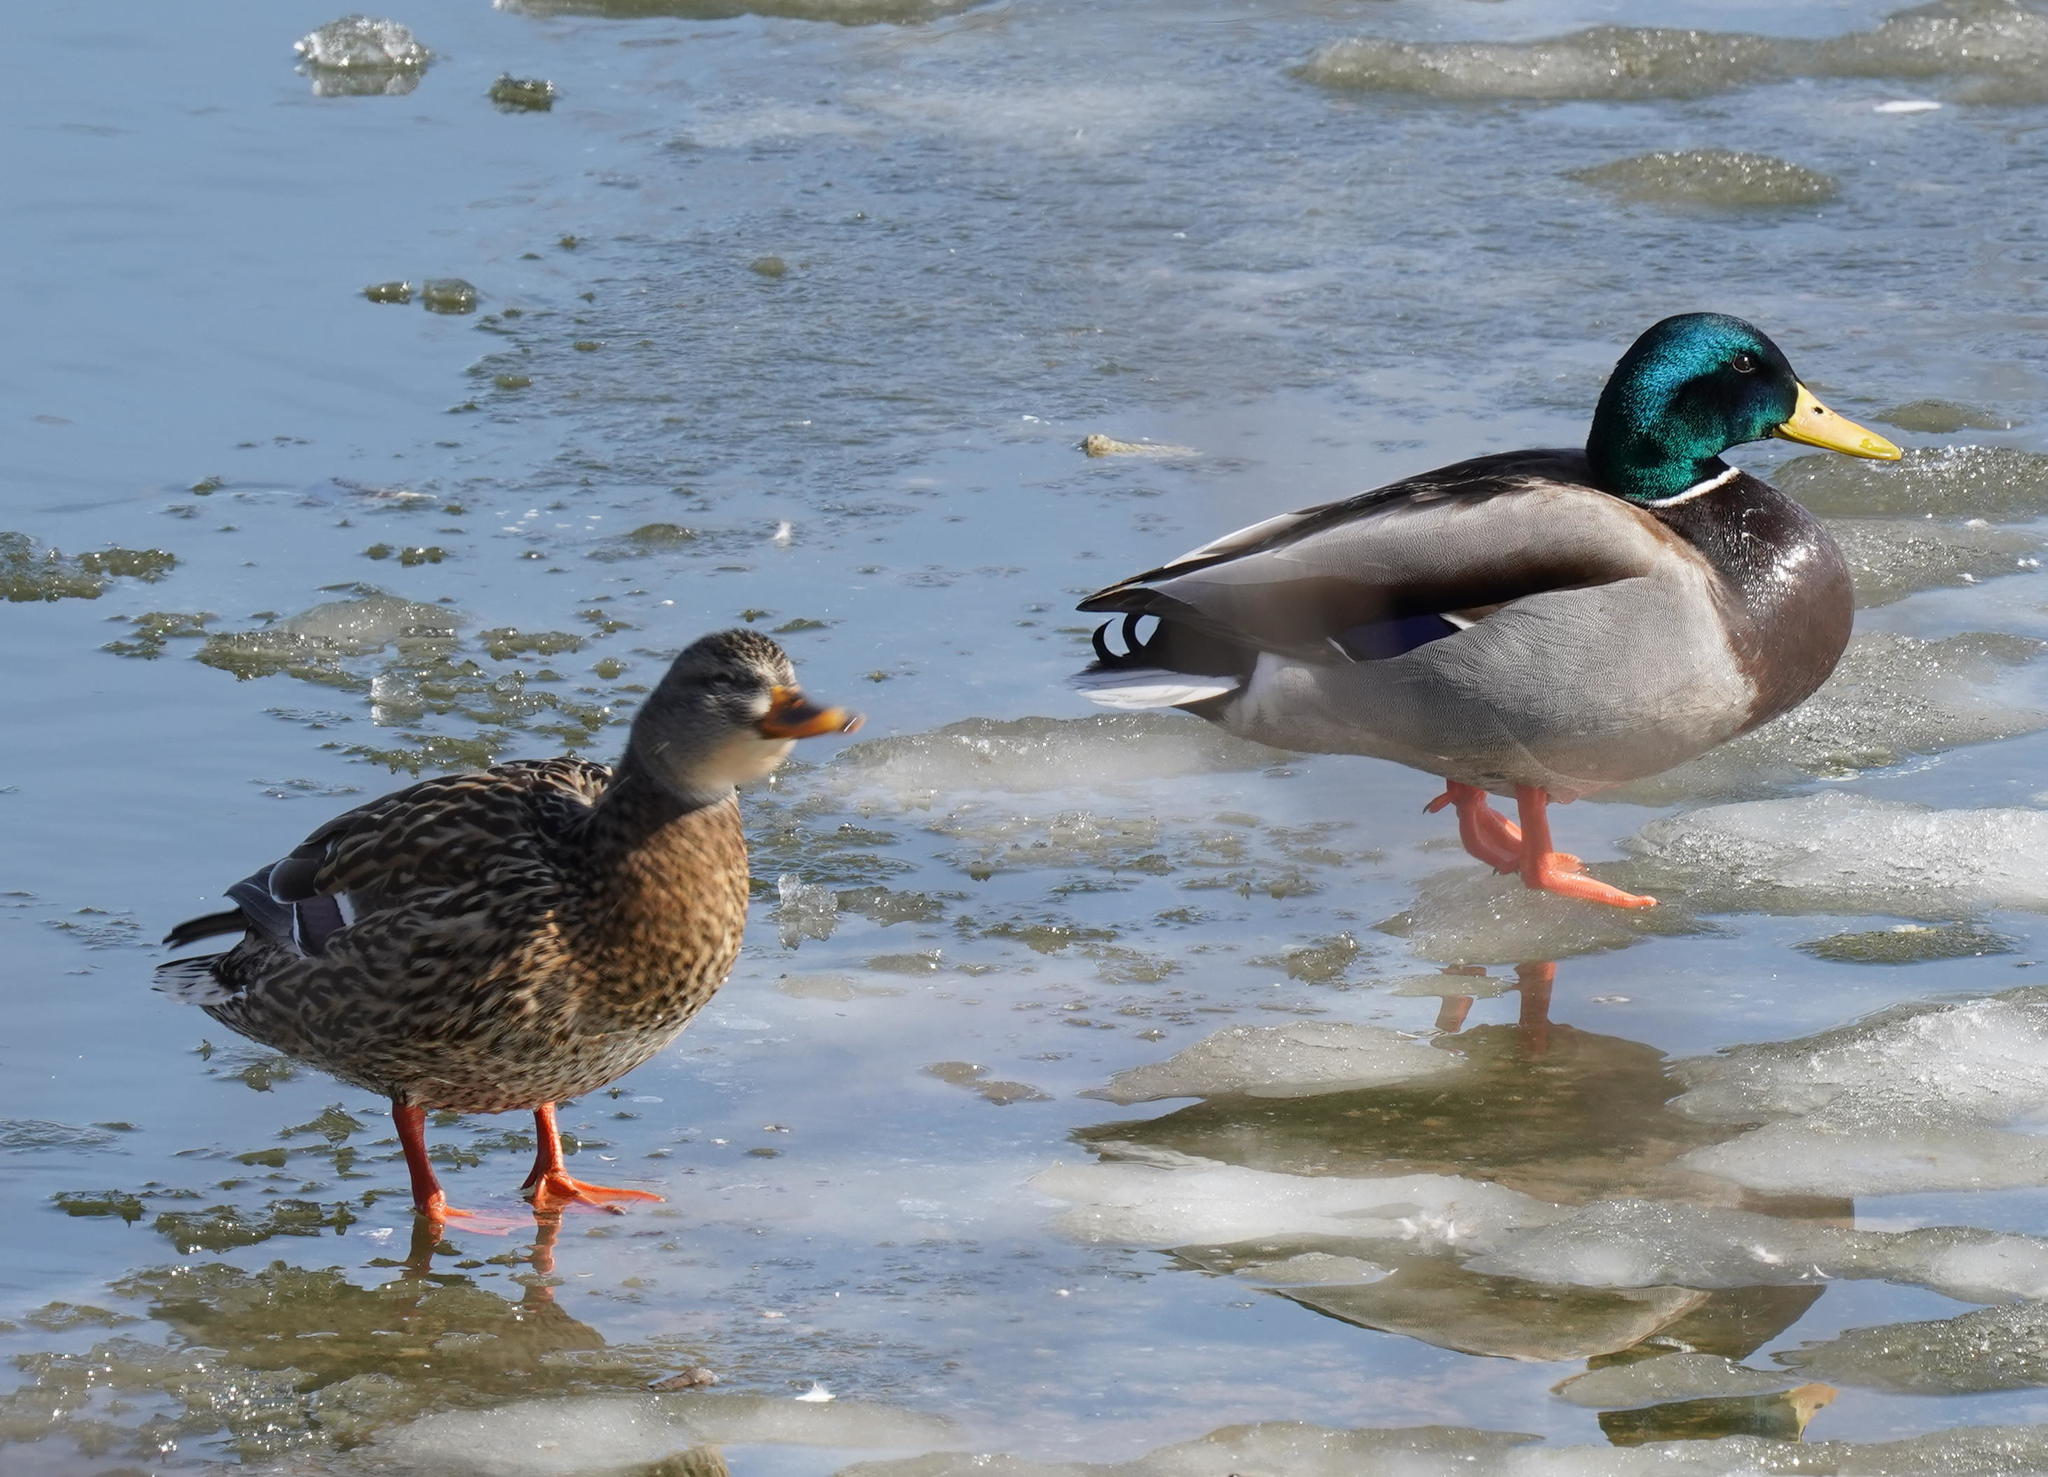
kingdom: Animalia
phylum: Chordata
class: Aves
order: Anseriformes
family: Anatidae
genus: Anas
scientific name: Anas platyrhynchos
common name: Mallard
